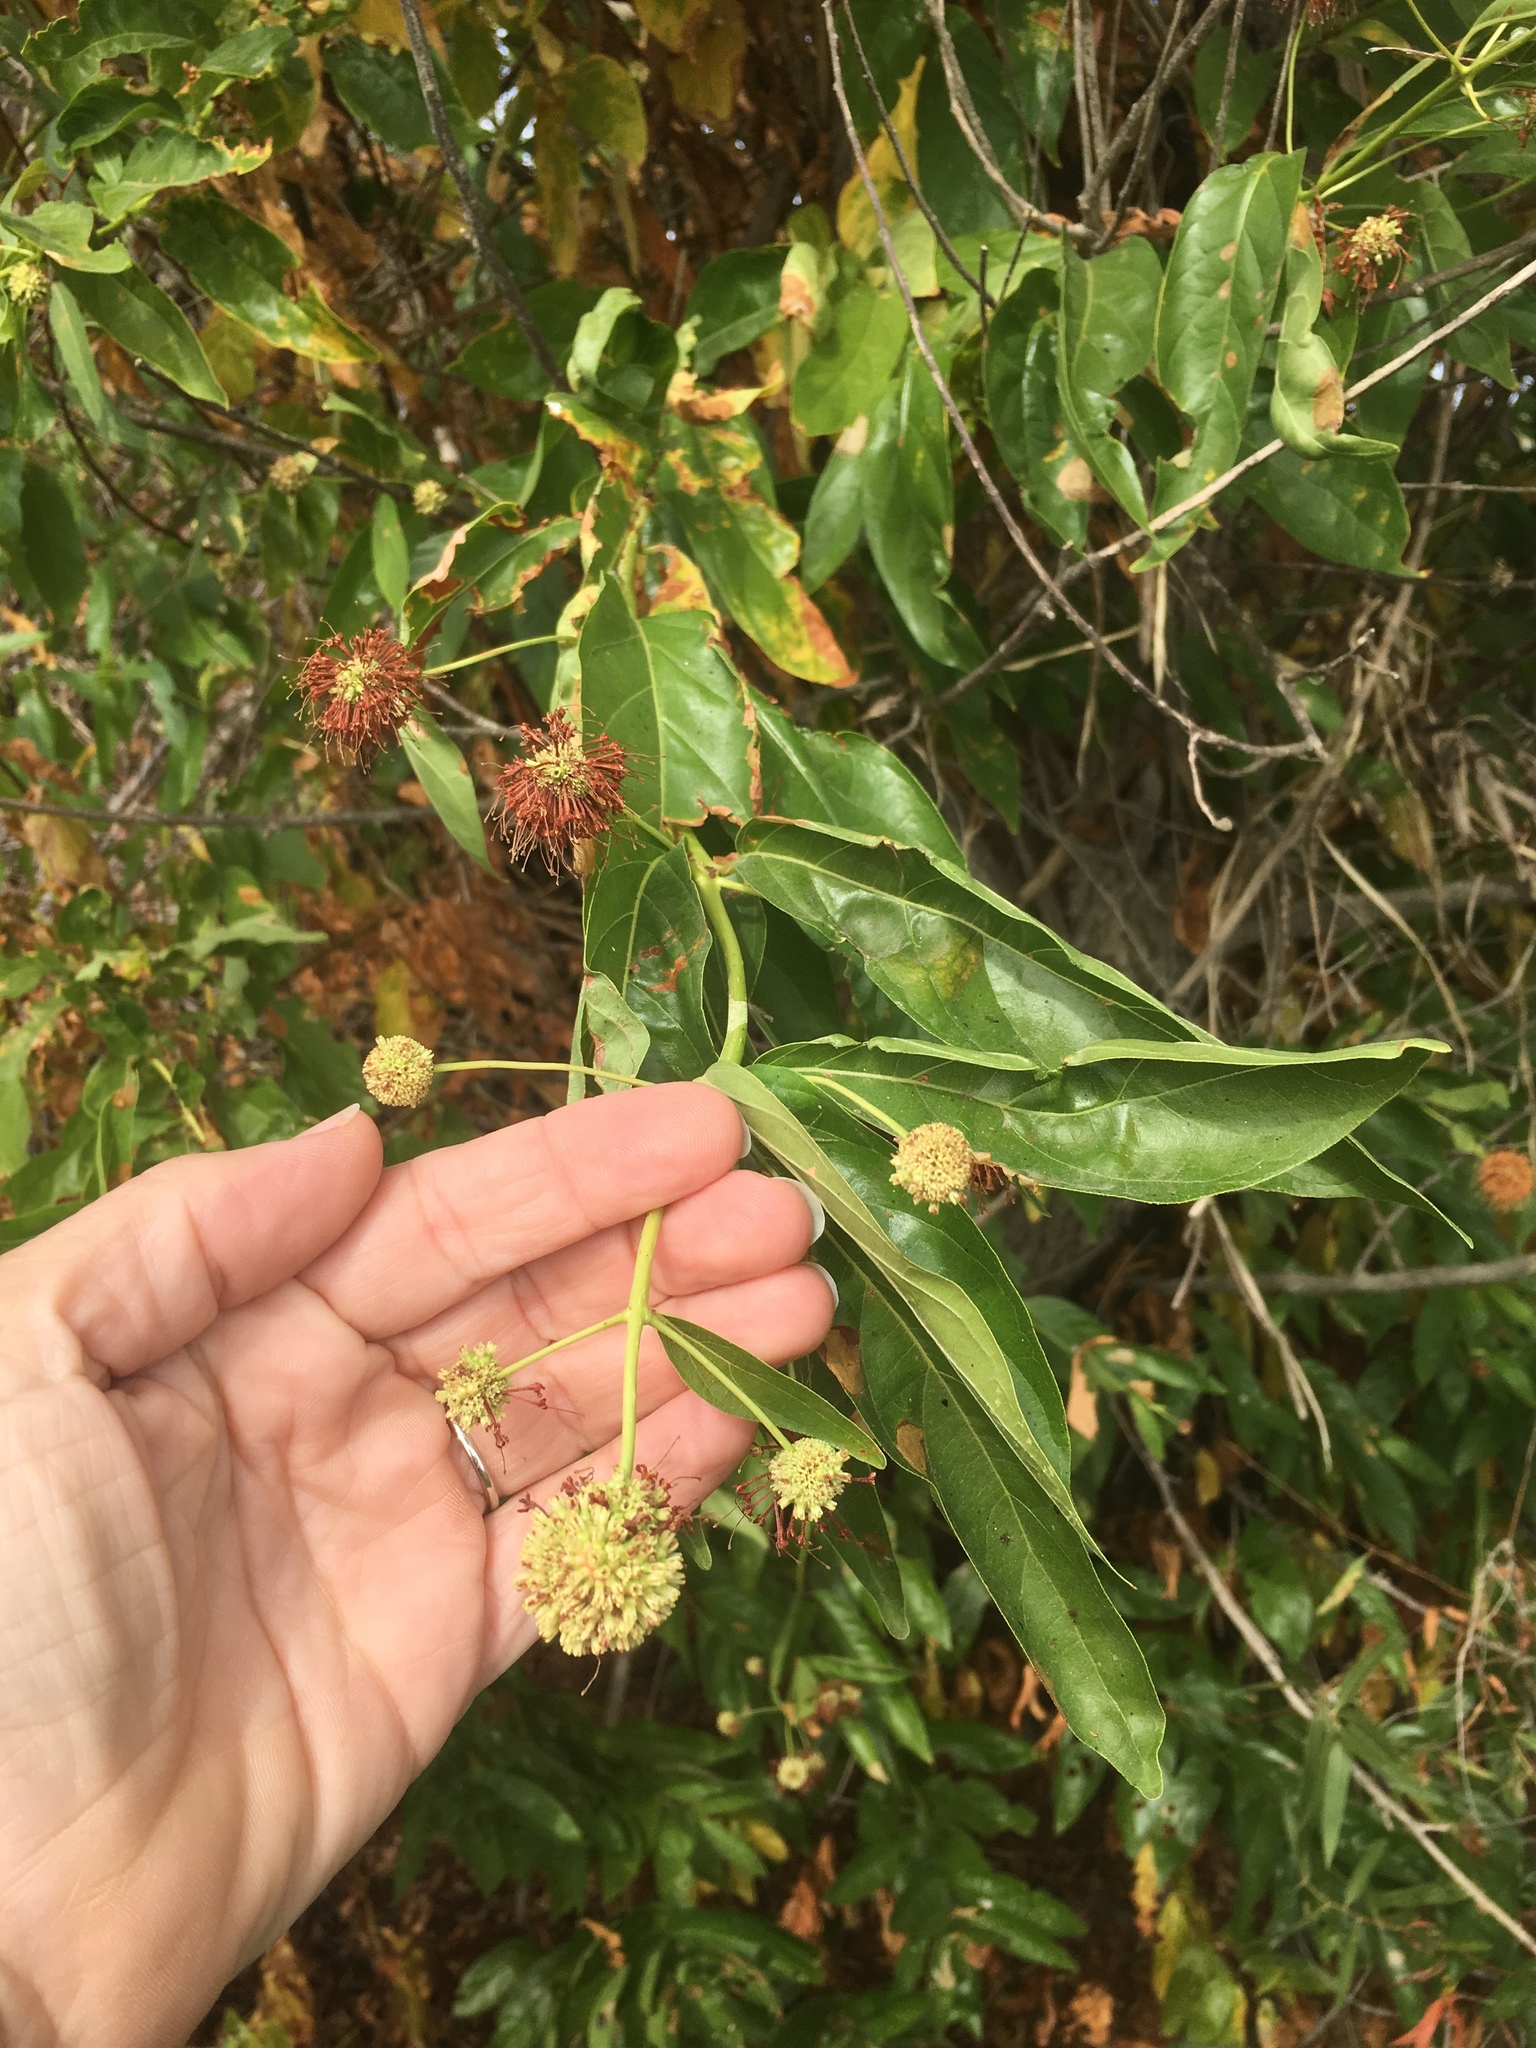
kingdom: Plantae
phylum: Tracheophyta
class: Magnoliopsida
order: Gentianales
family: Rubiaceae
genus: Cephalanthus
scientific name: Cephalanthus occidentalis
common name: Button-willow
